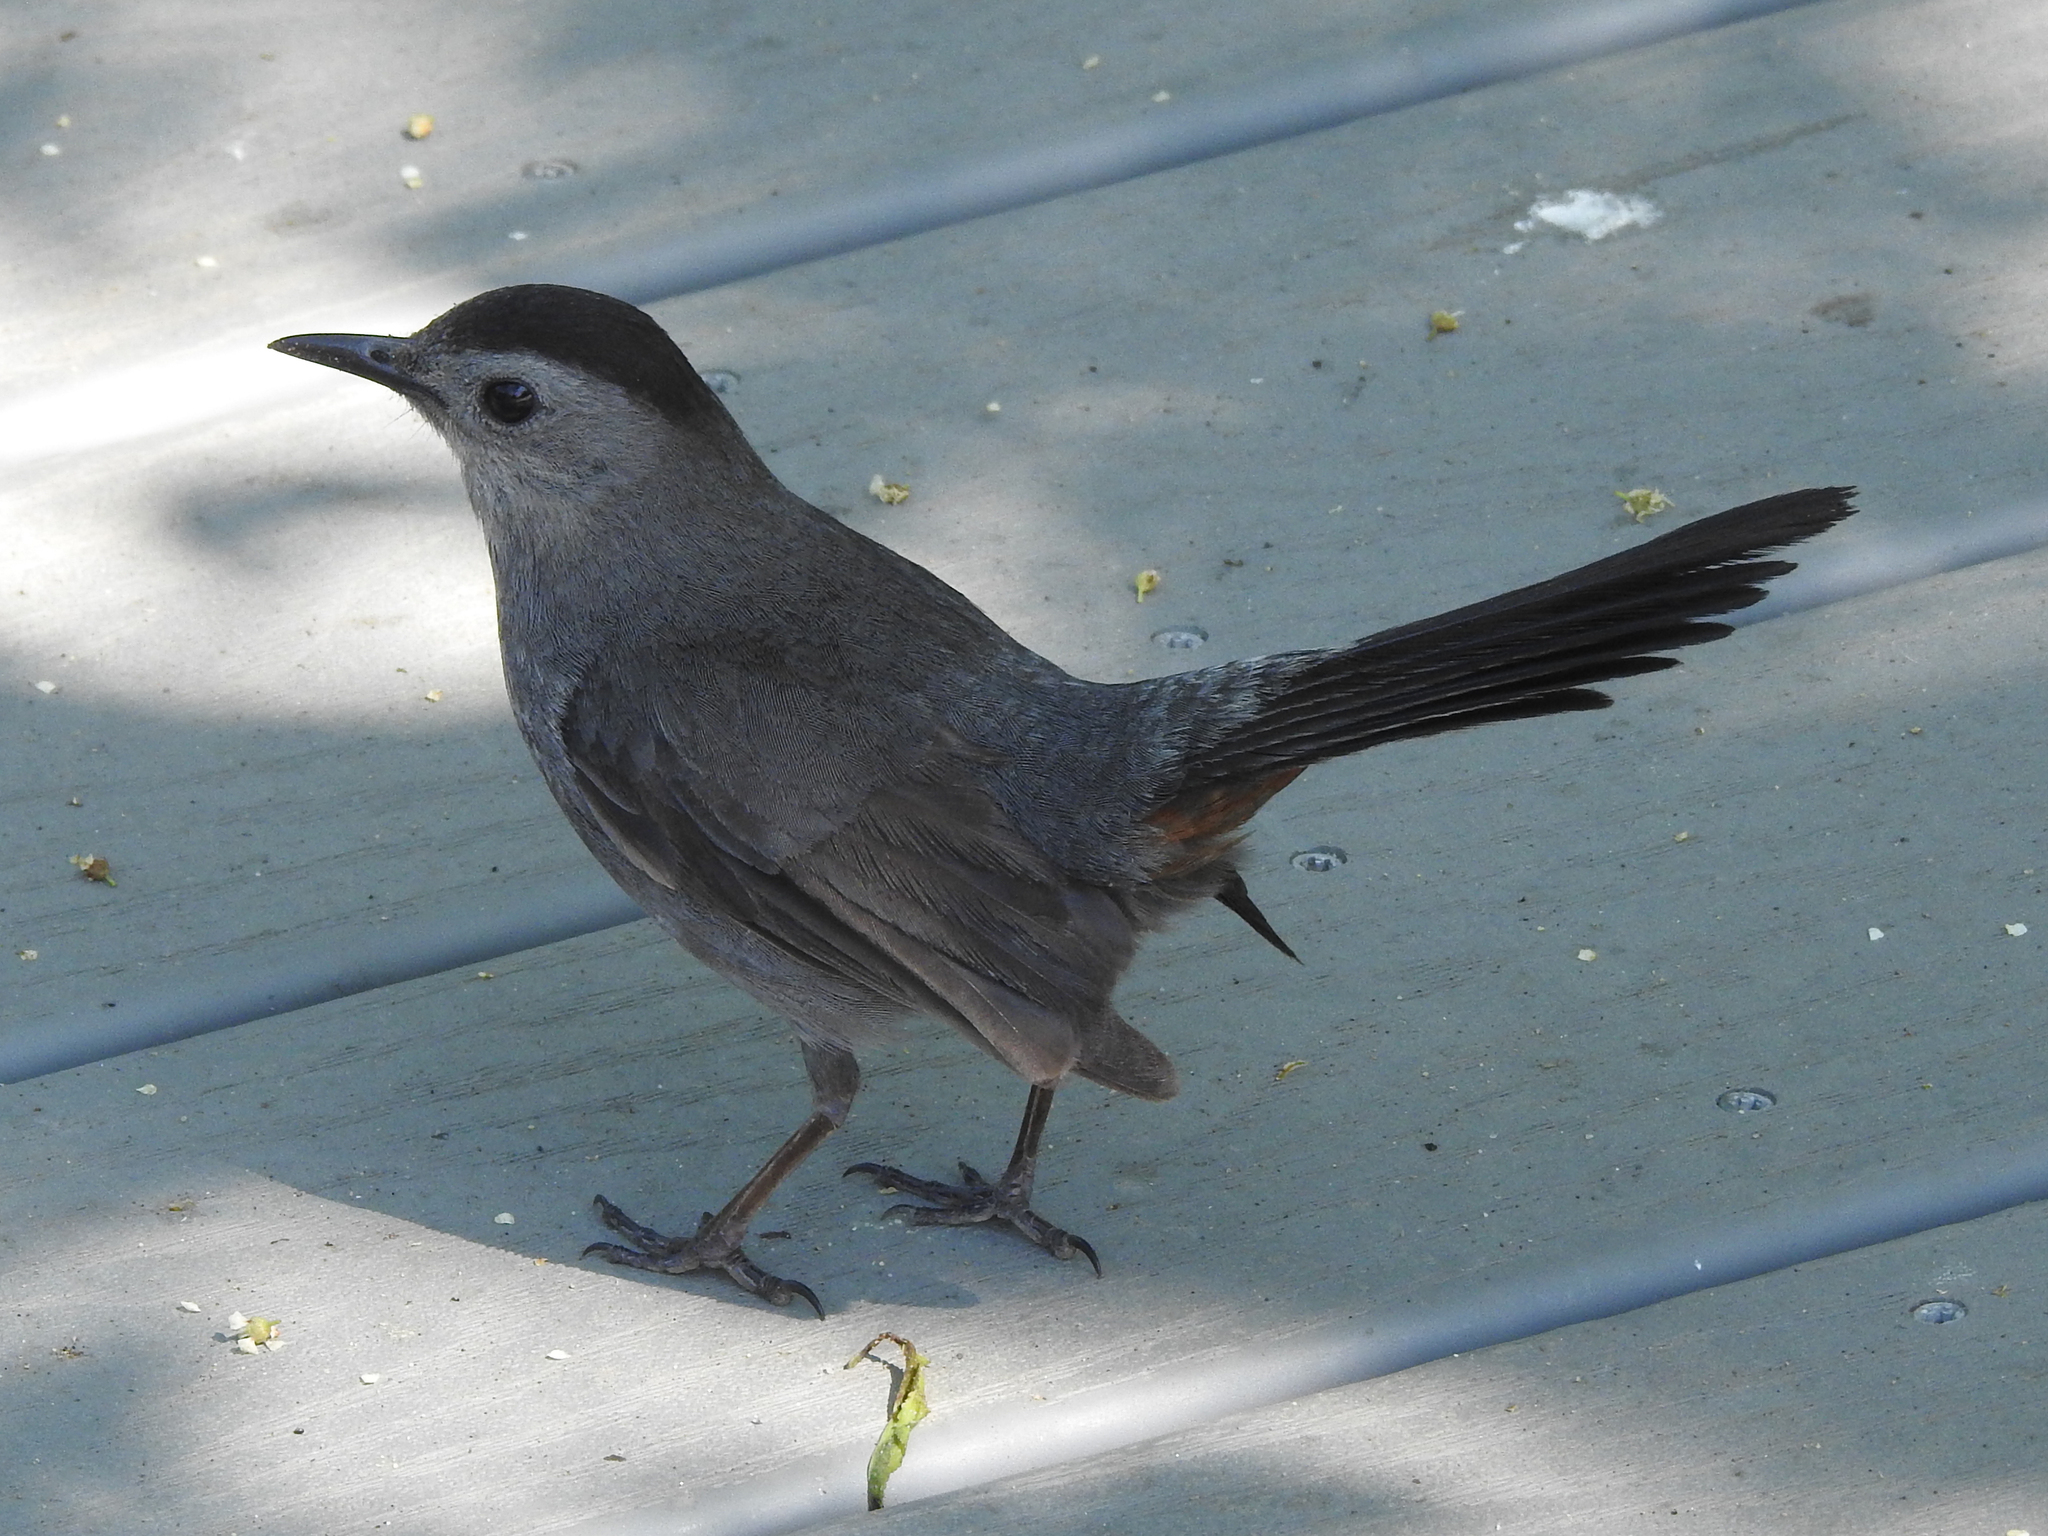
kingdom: Animalia
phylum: Chordata
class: Aves
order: Passeriformes
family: Mimidae
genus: Dumetella
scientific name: Dumetella carolinensis
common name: Gray catbird
